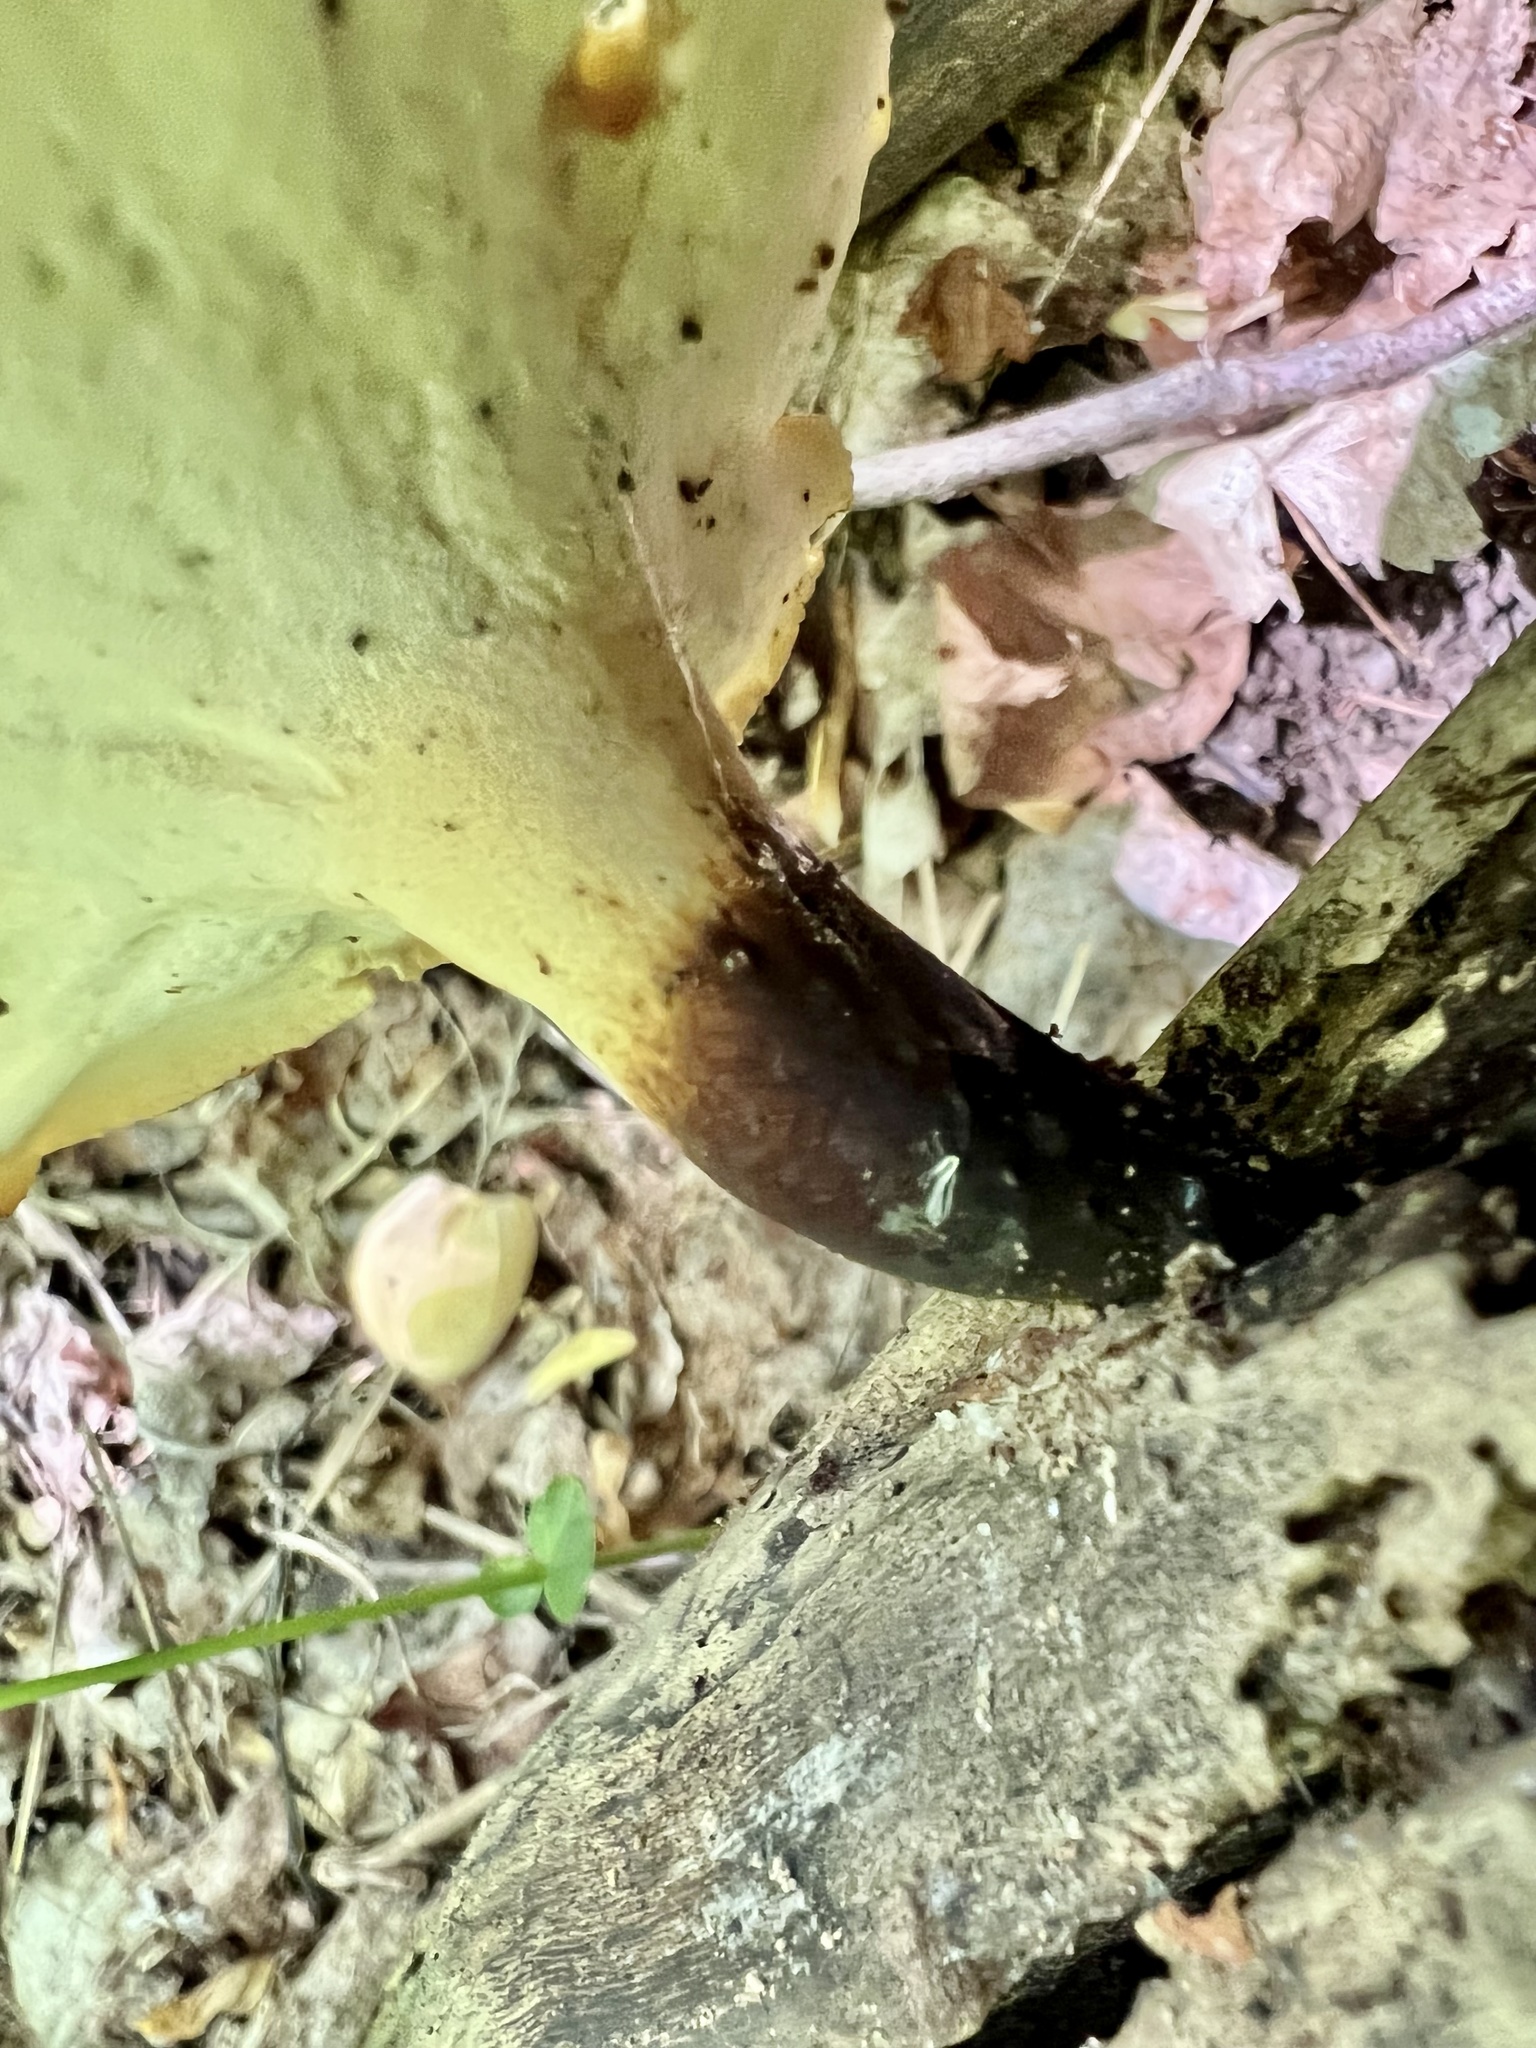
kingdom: Fungi
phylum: Basidiomycota
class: Agaricomycetes
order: Polyporales
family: Polyporaceae
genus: Cerioporus
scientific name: Cerioporus varius
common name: Elegant polypore
